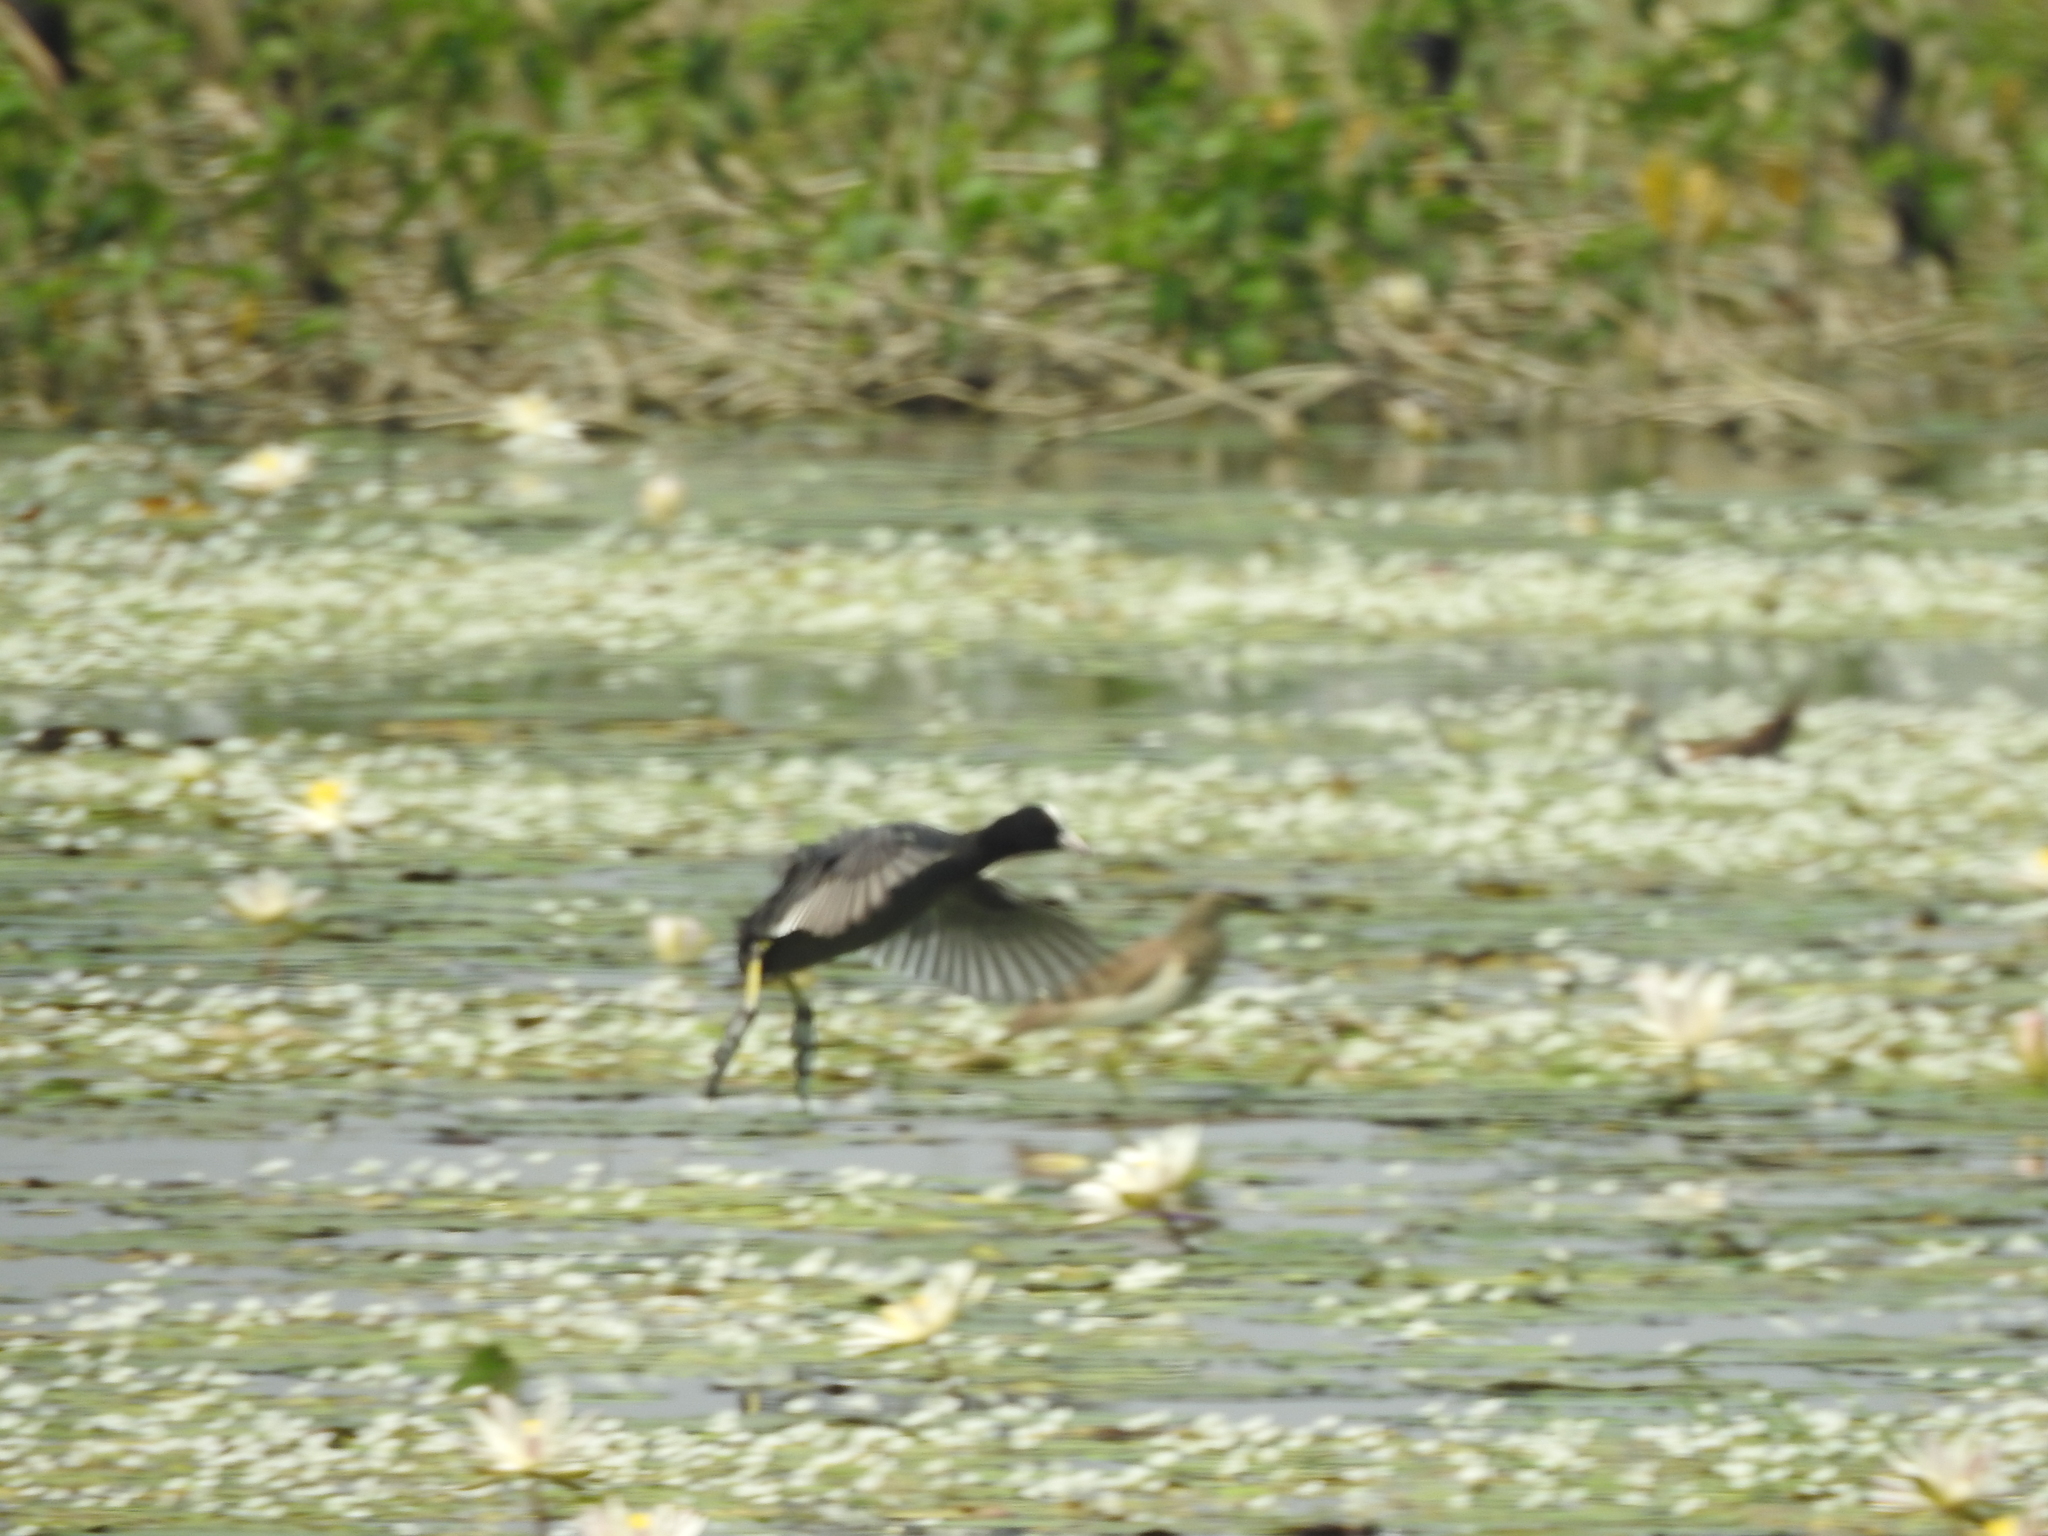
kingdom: Animalia
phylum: Chordata
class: Aves
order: Gruiformes
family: Rallidae
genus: Fulica
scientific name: Fulica atra
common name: Eurasian coot
